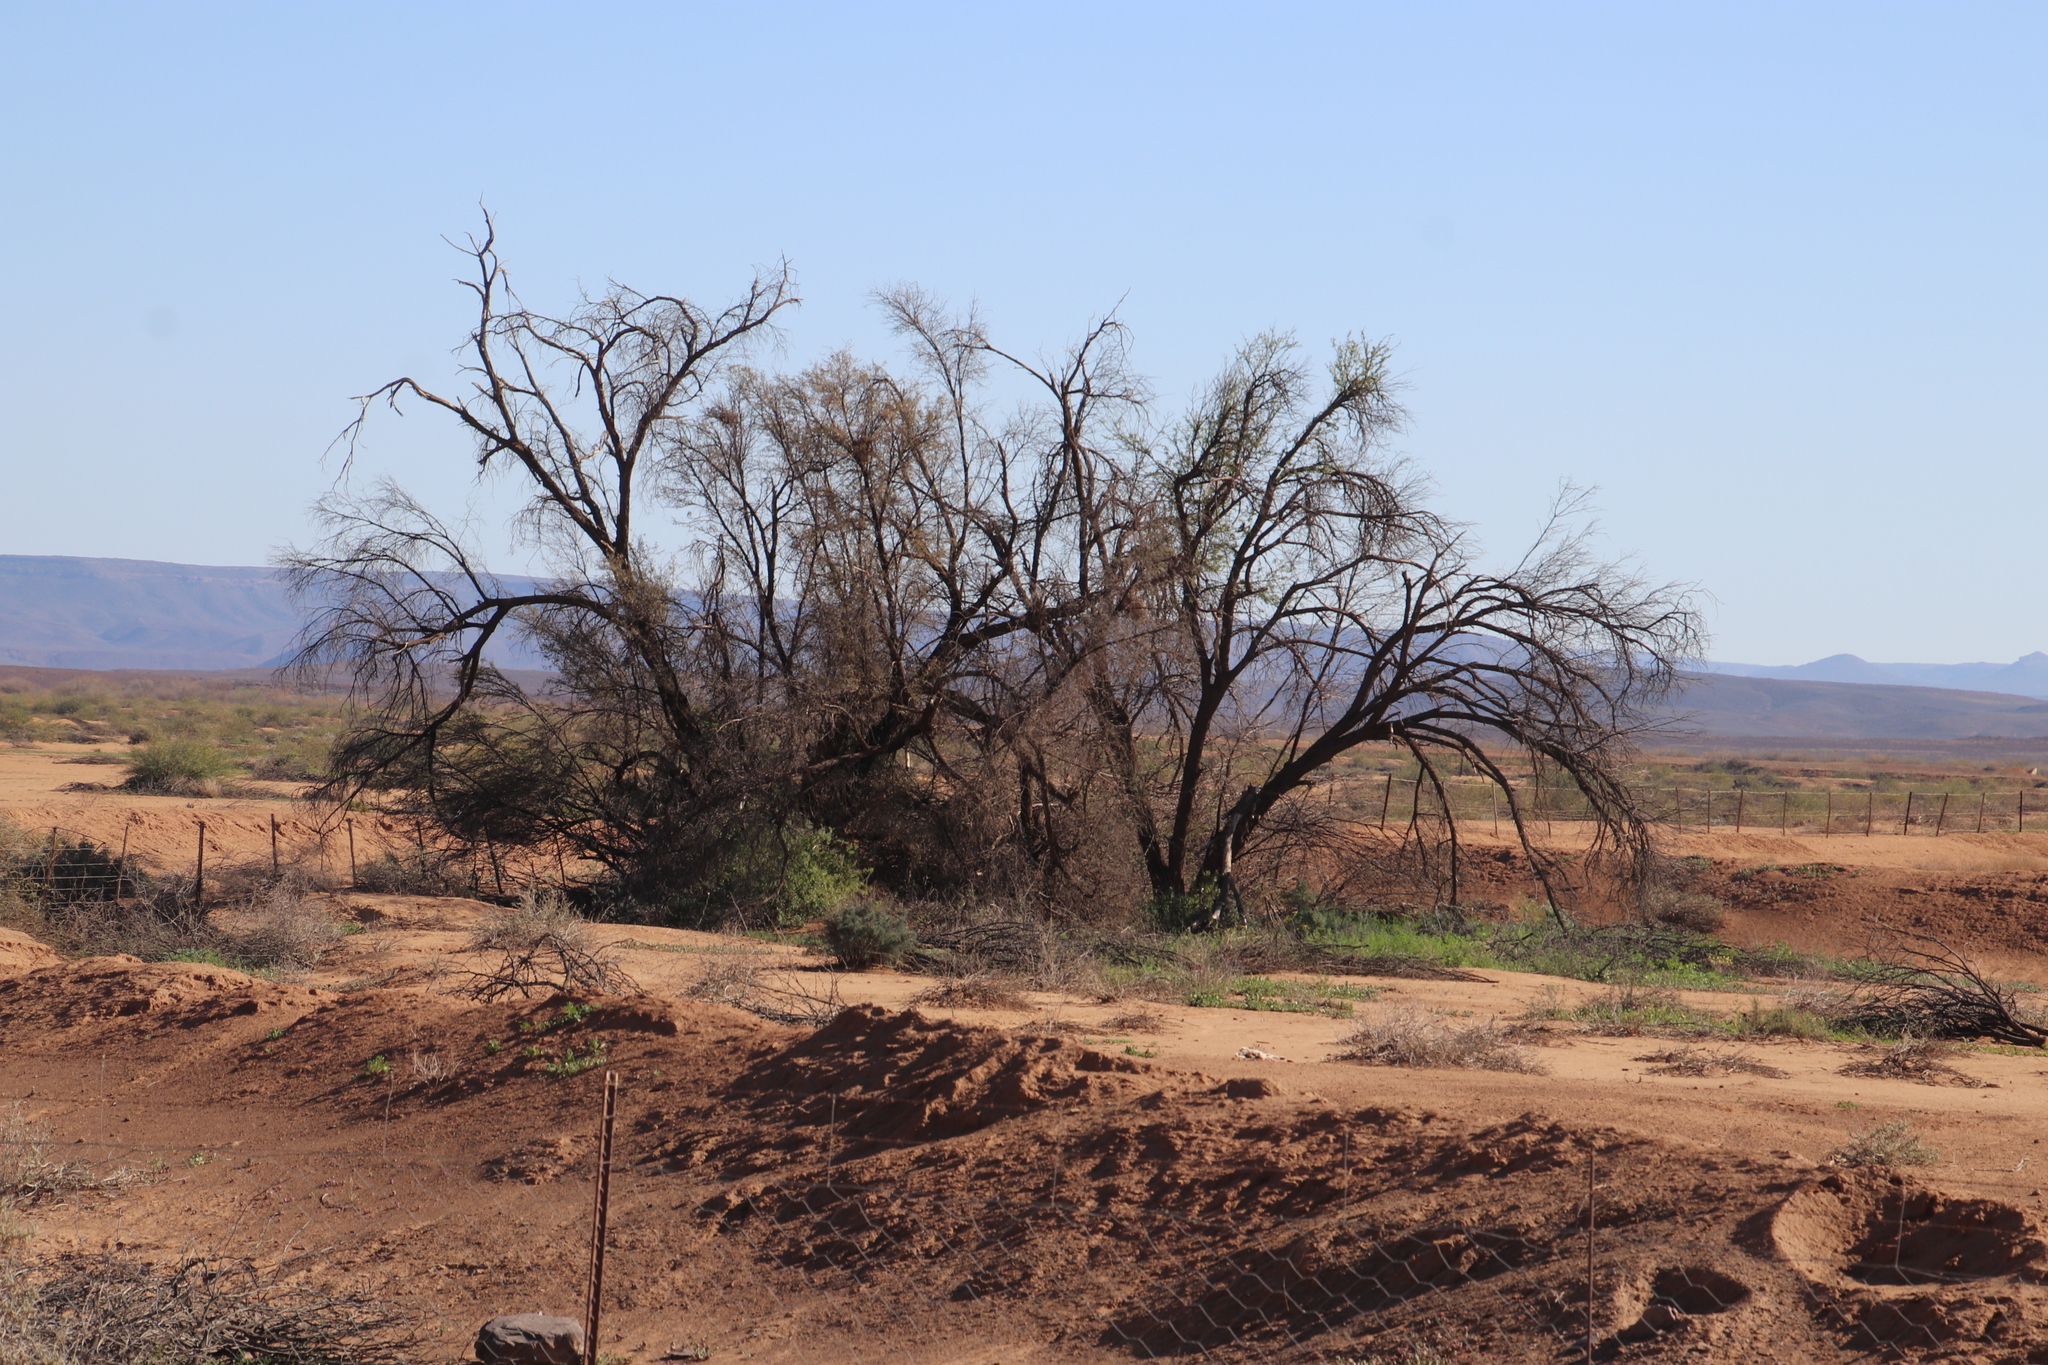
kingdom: Plantae
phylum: Tracheophyta
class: Magnoliopsida
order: Fabales
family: Fabaceae
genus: Prosopis
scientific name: Prosopis pubescens
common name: Screw-bean
